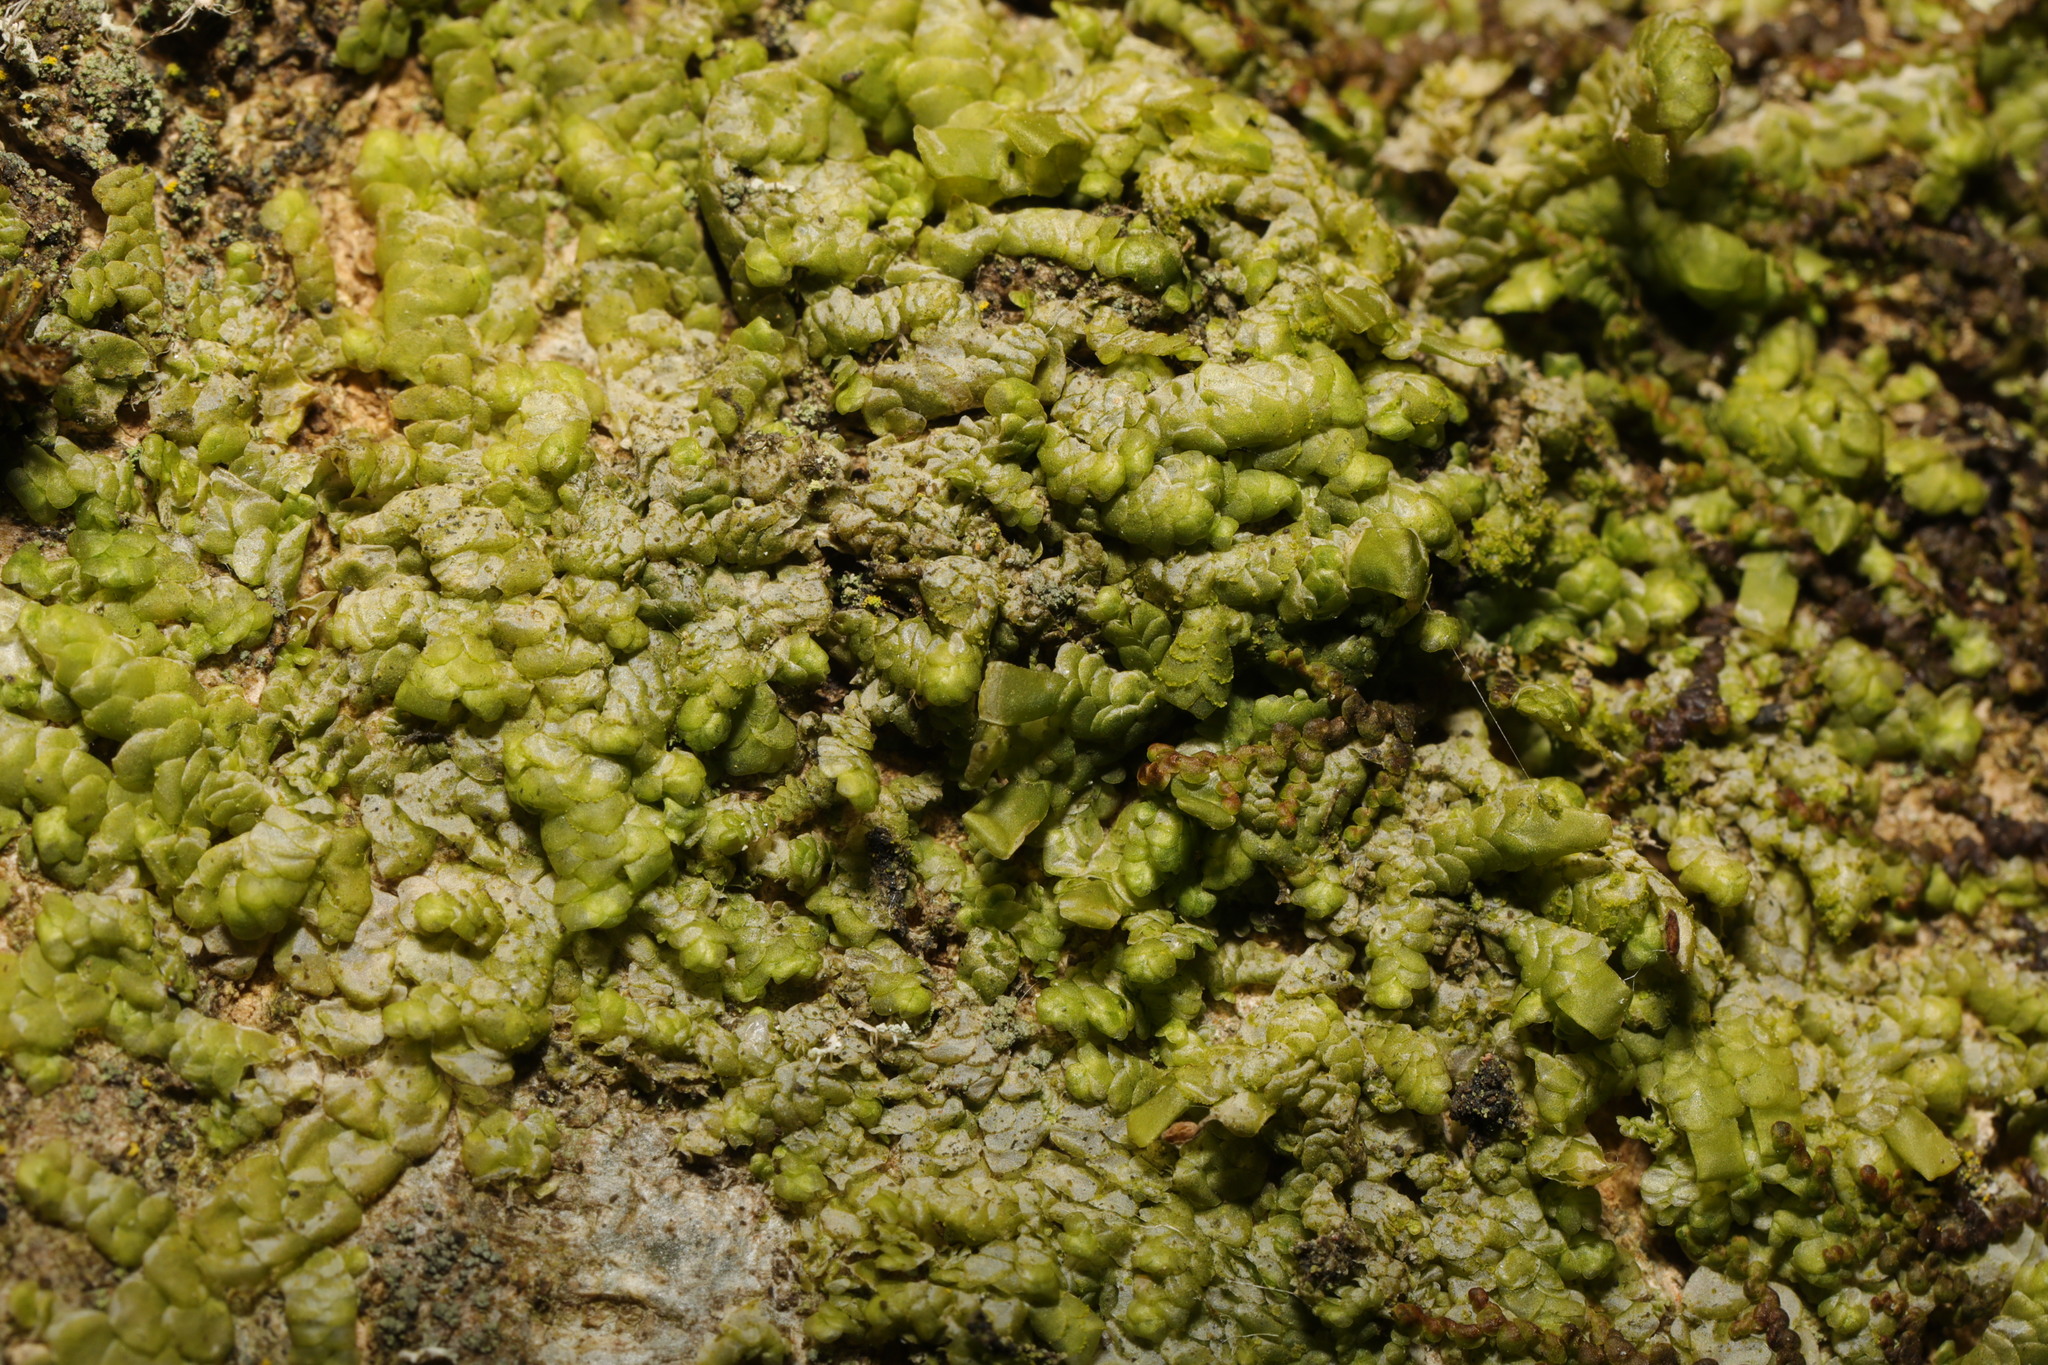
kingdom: Plantae
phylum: Marchantiophyta
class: Jungermanniopsida
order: Porellales
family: Radulaceae
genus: Radula
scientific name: Radula complanata
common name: Flat-leaved scalewort
